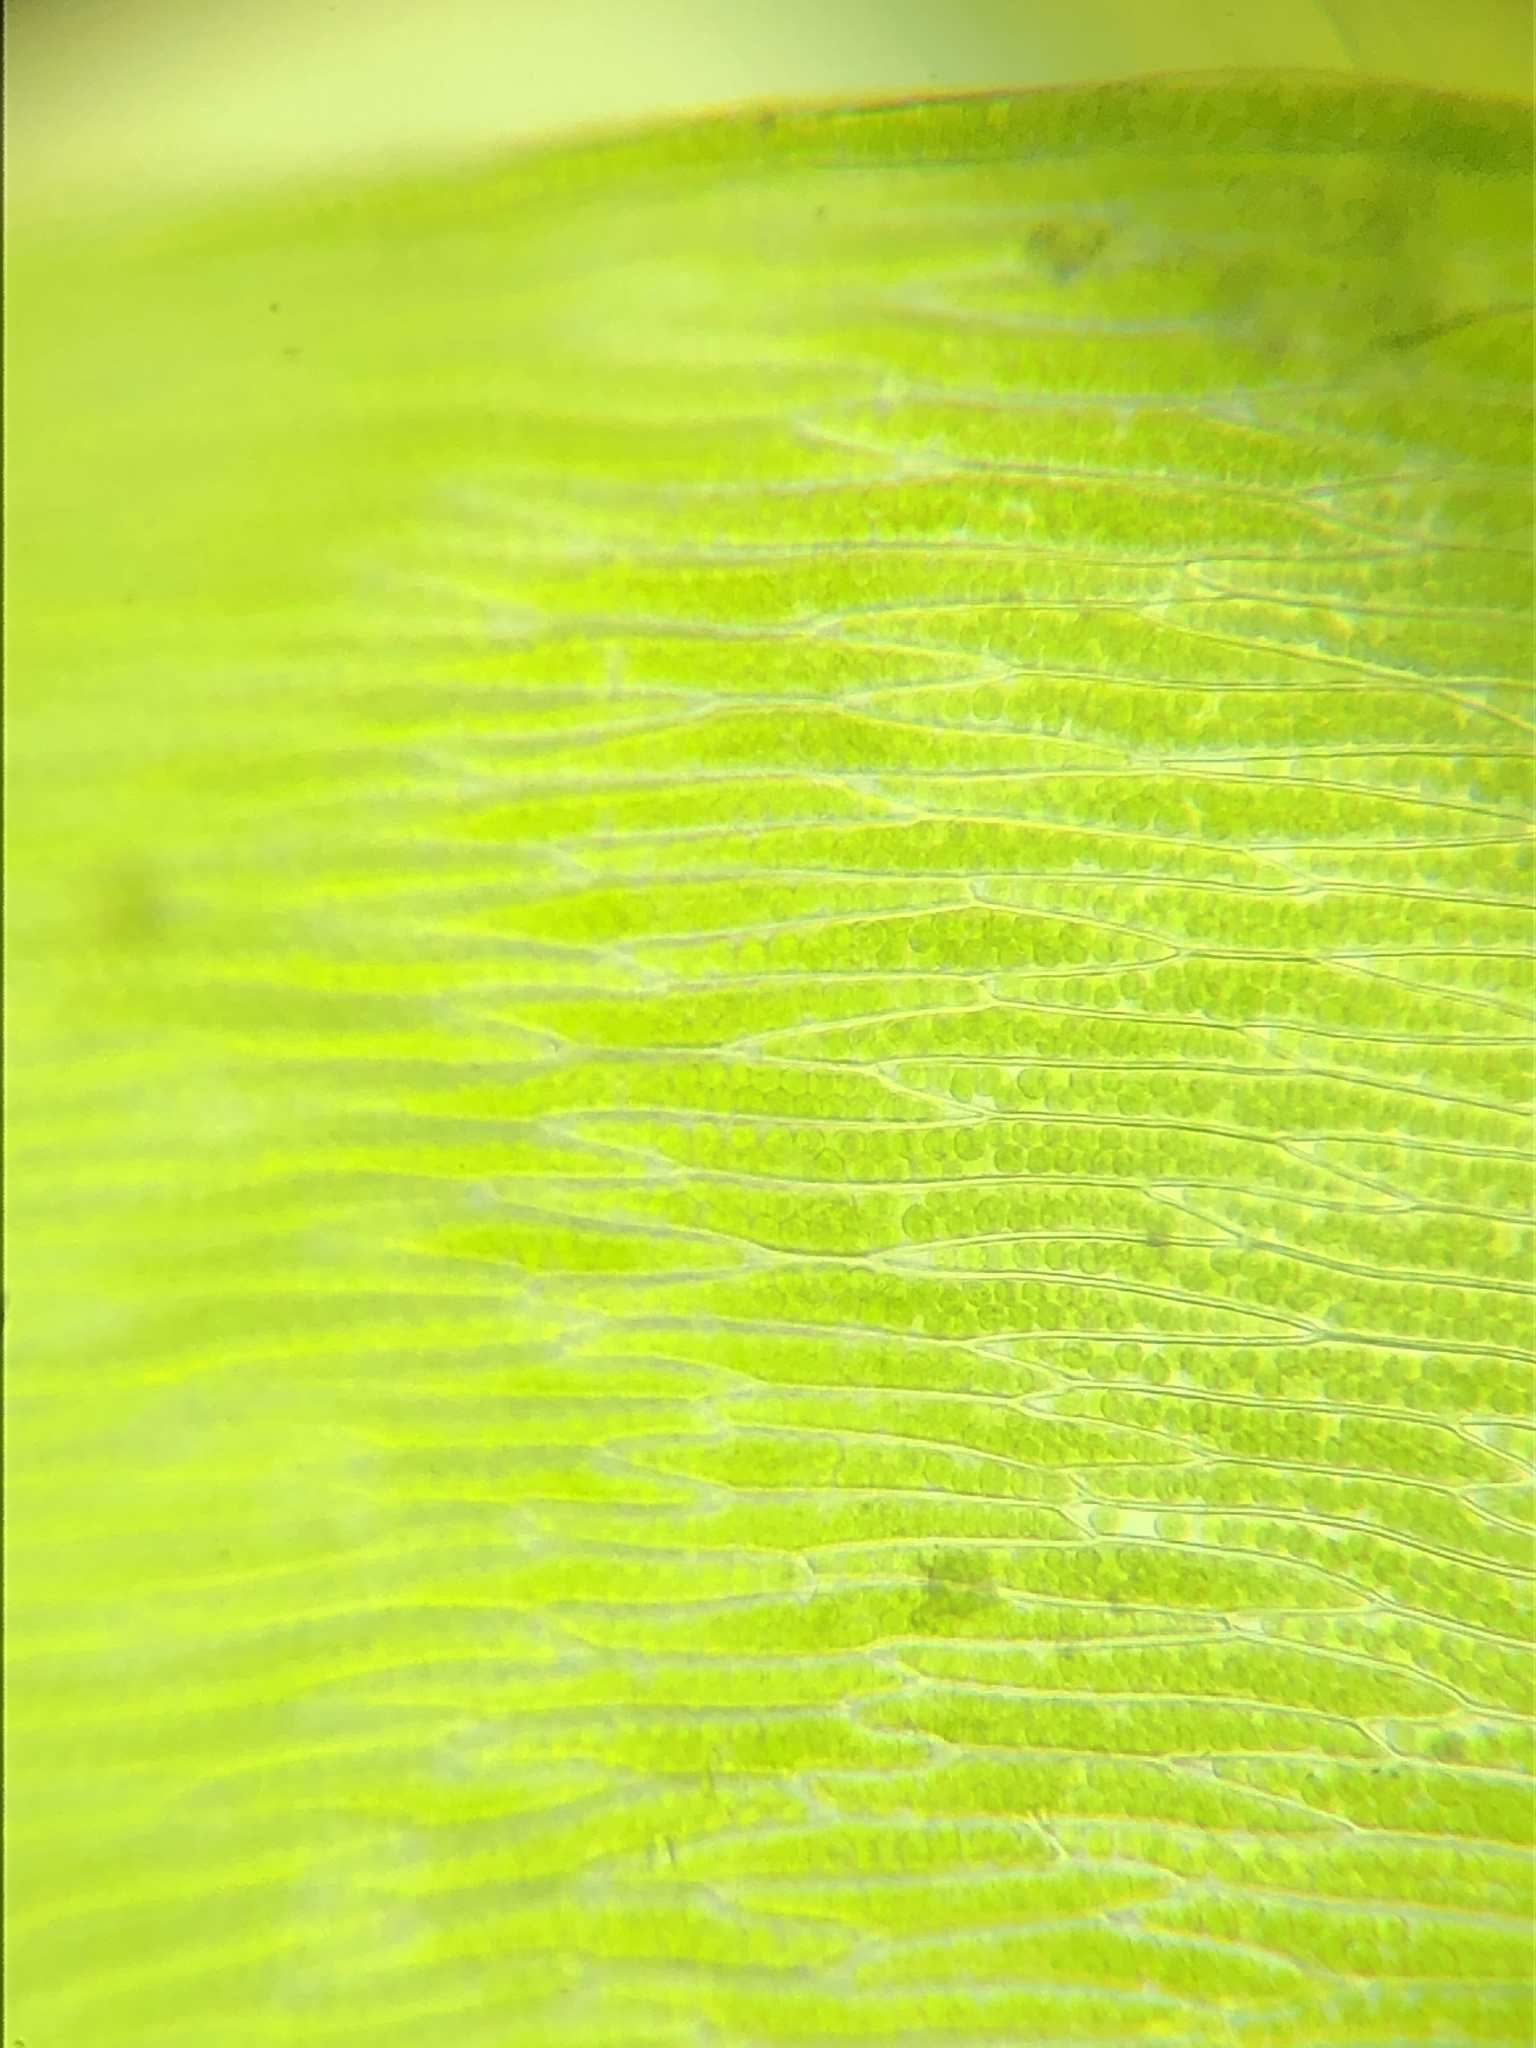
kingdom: Plantae
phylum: Bryophyta
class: Bryopsida
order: Hypnales
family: Plagiotheciaceae
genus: Plagiothecium
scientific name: Plagiothecium succulentum
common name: Juicy silk-moss
